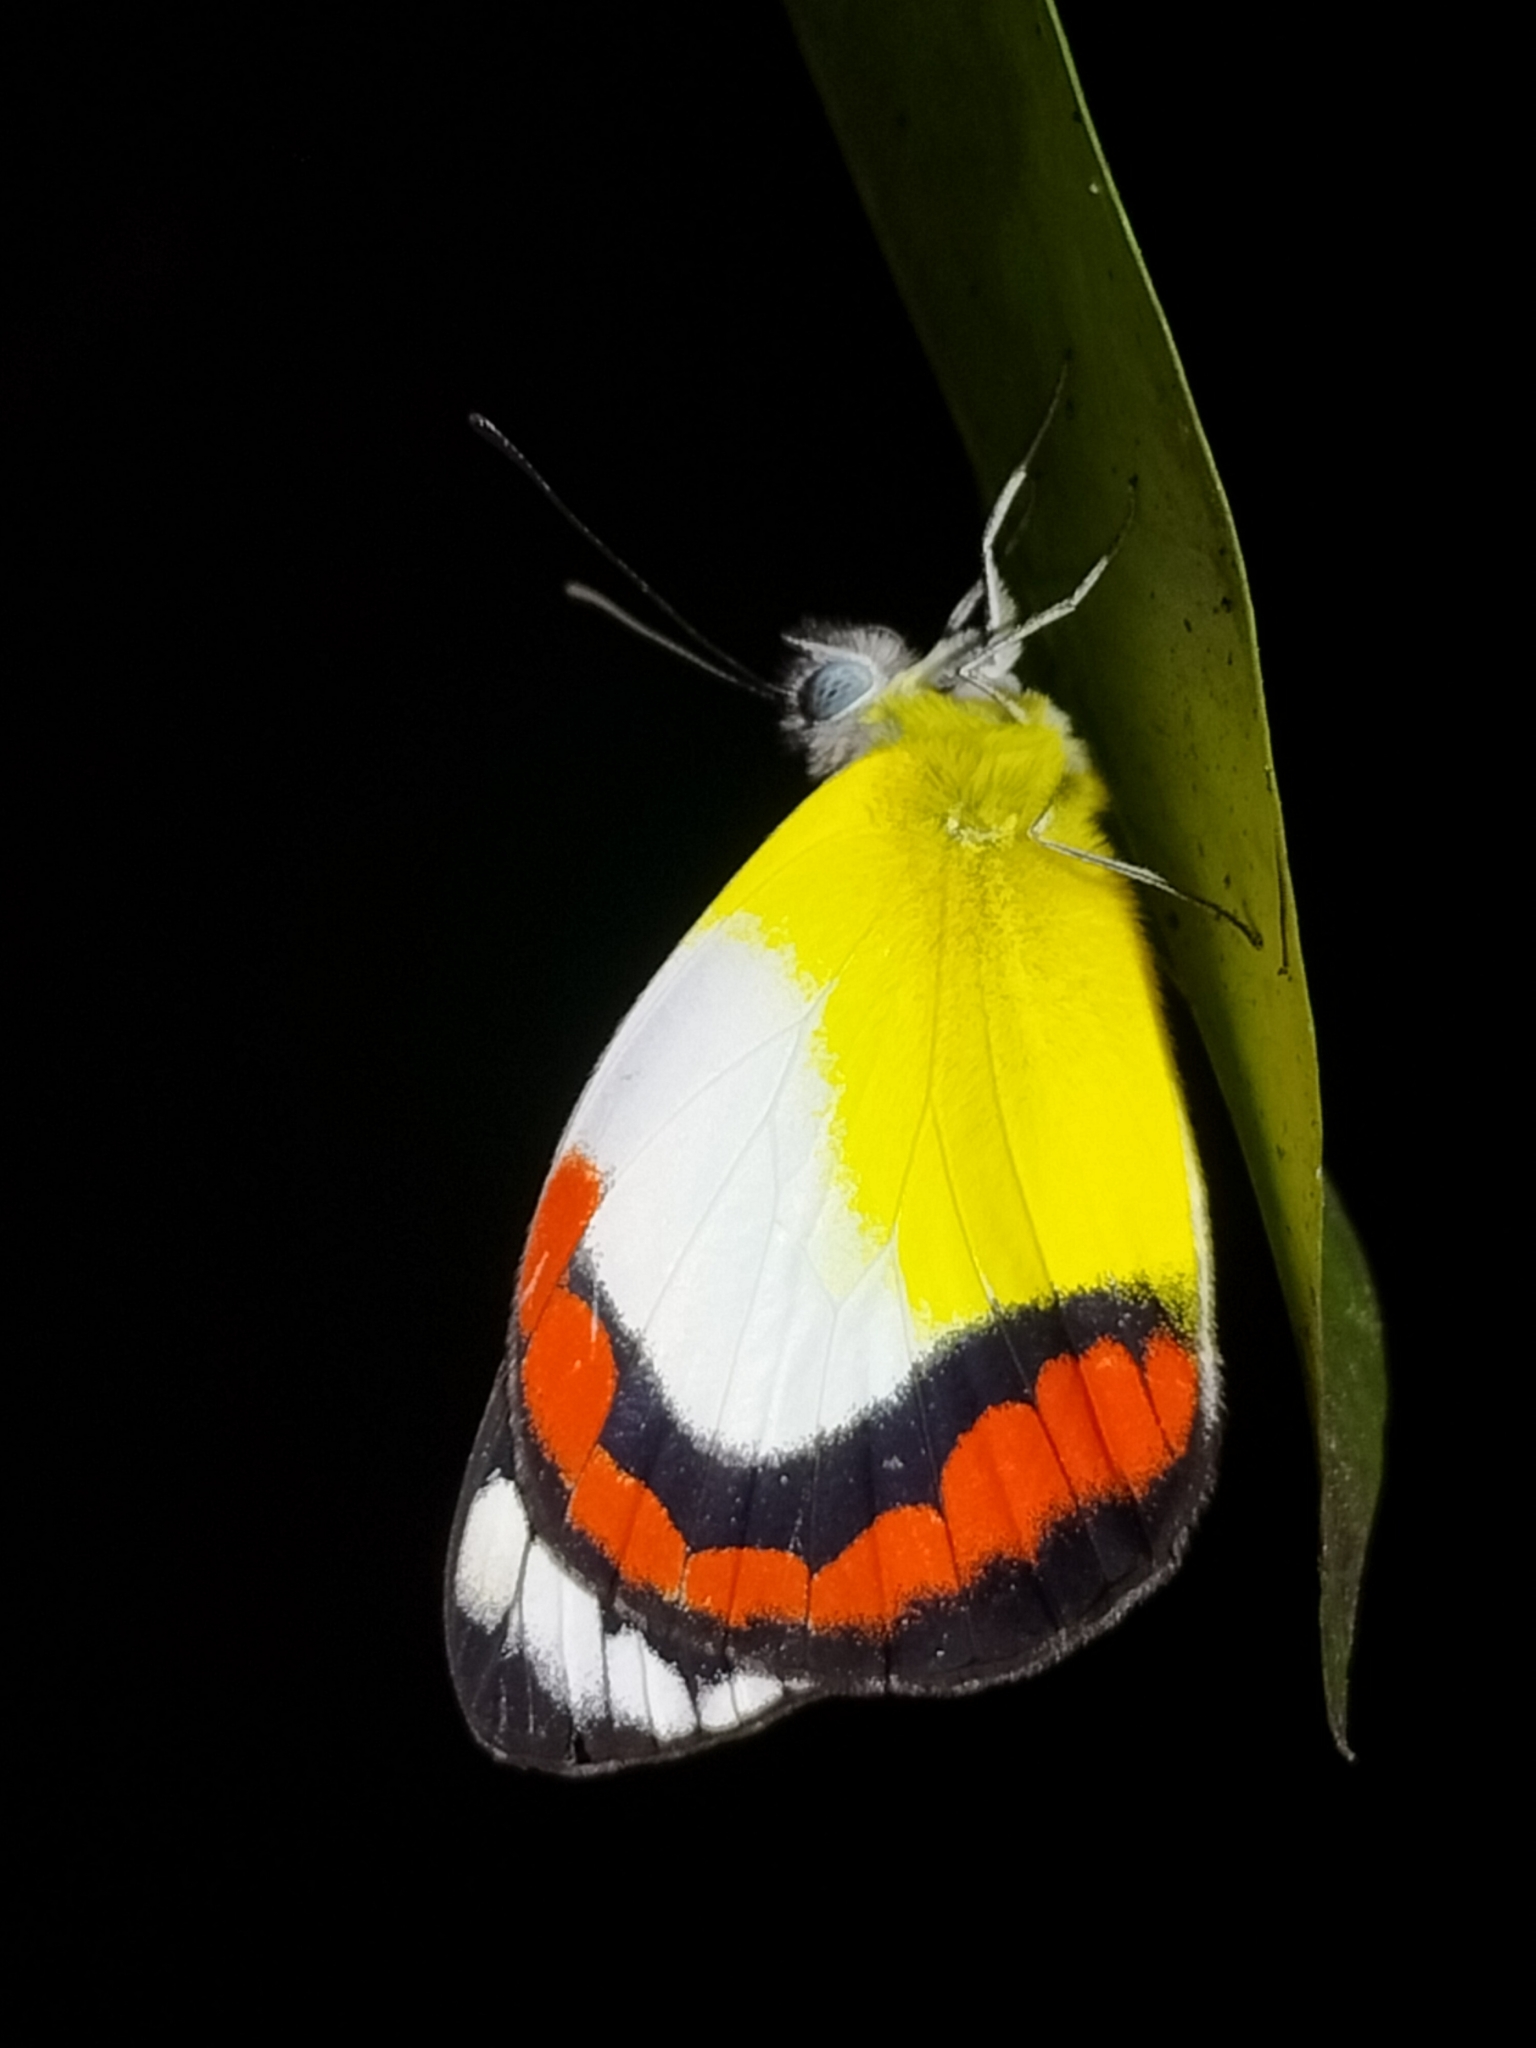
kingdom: Animalia
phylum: Arthropoda
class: Insecta
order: Lepidoptera
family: Pieridae
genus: Delias
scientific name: Delias mysis
